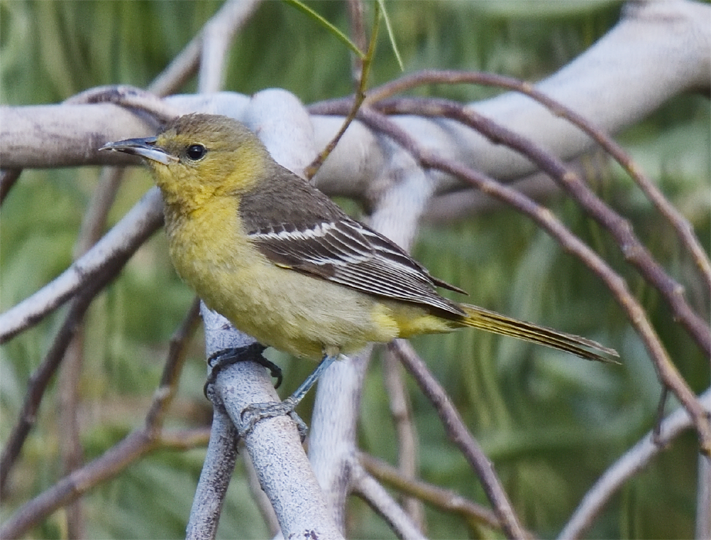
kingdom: Animalia
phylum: Chordata
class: Aves
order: Passeriformes
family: Icteridae
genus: Icterus
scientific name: Icterus cucullatus
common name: Hooded oriole
